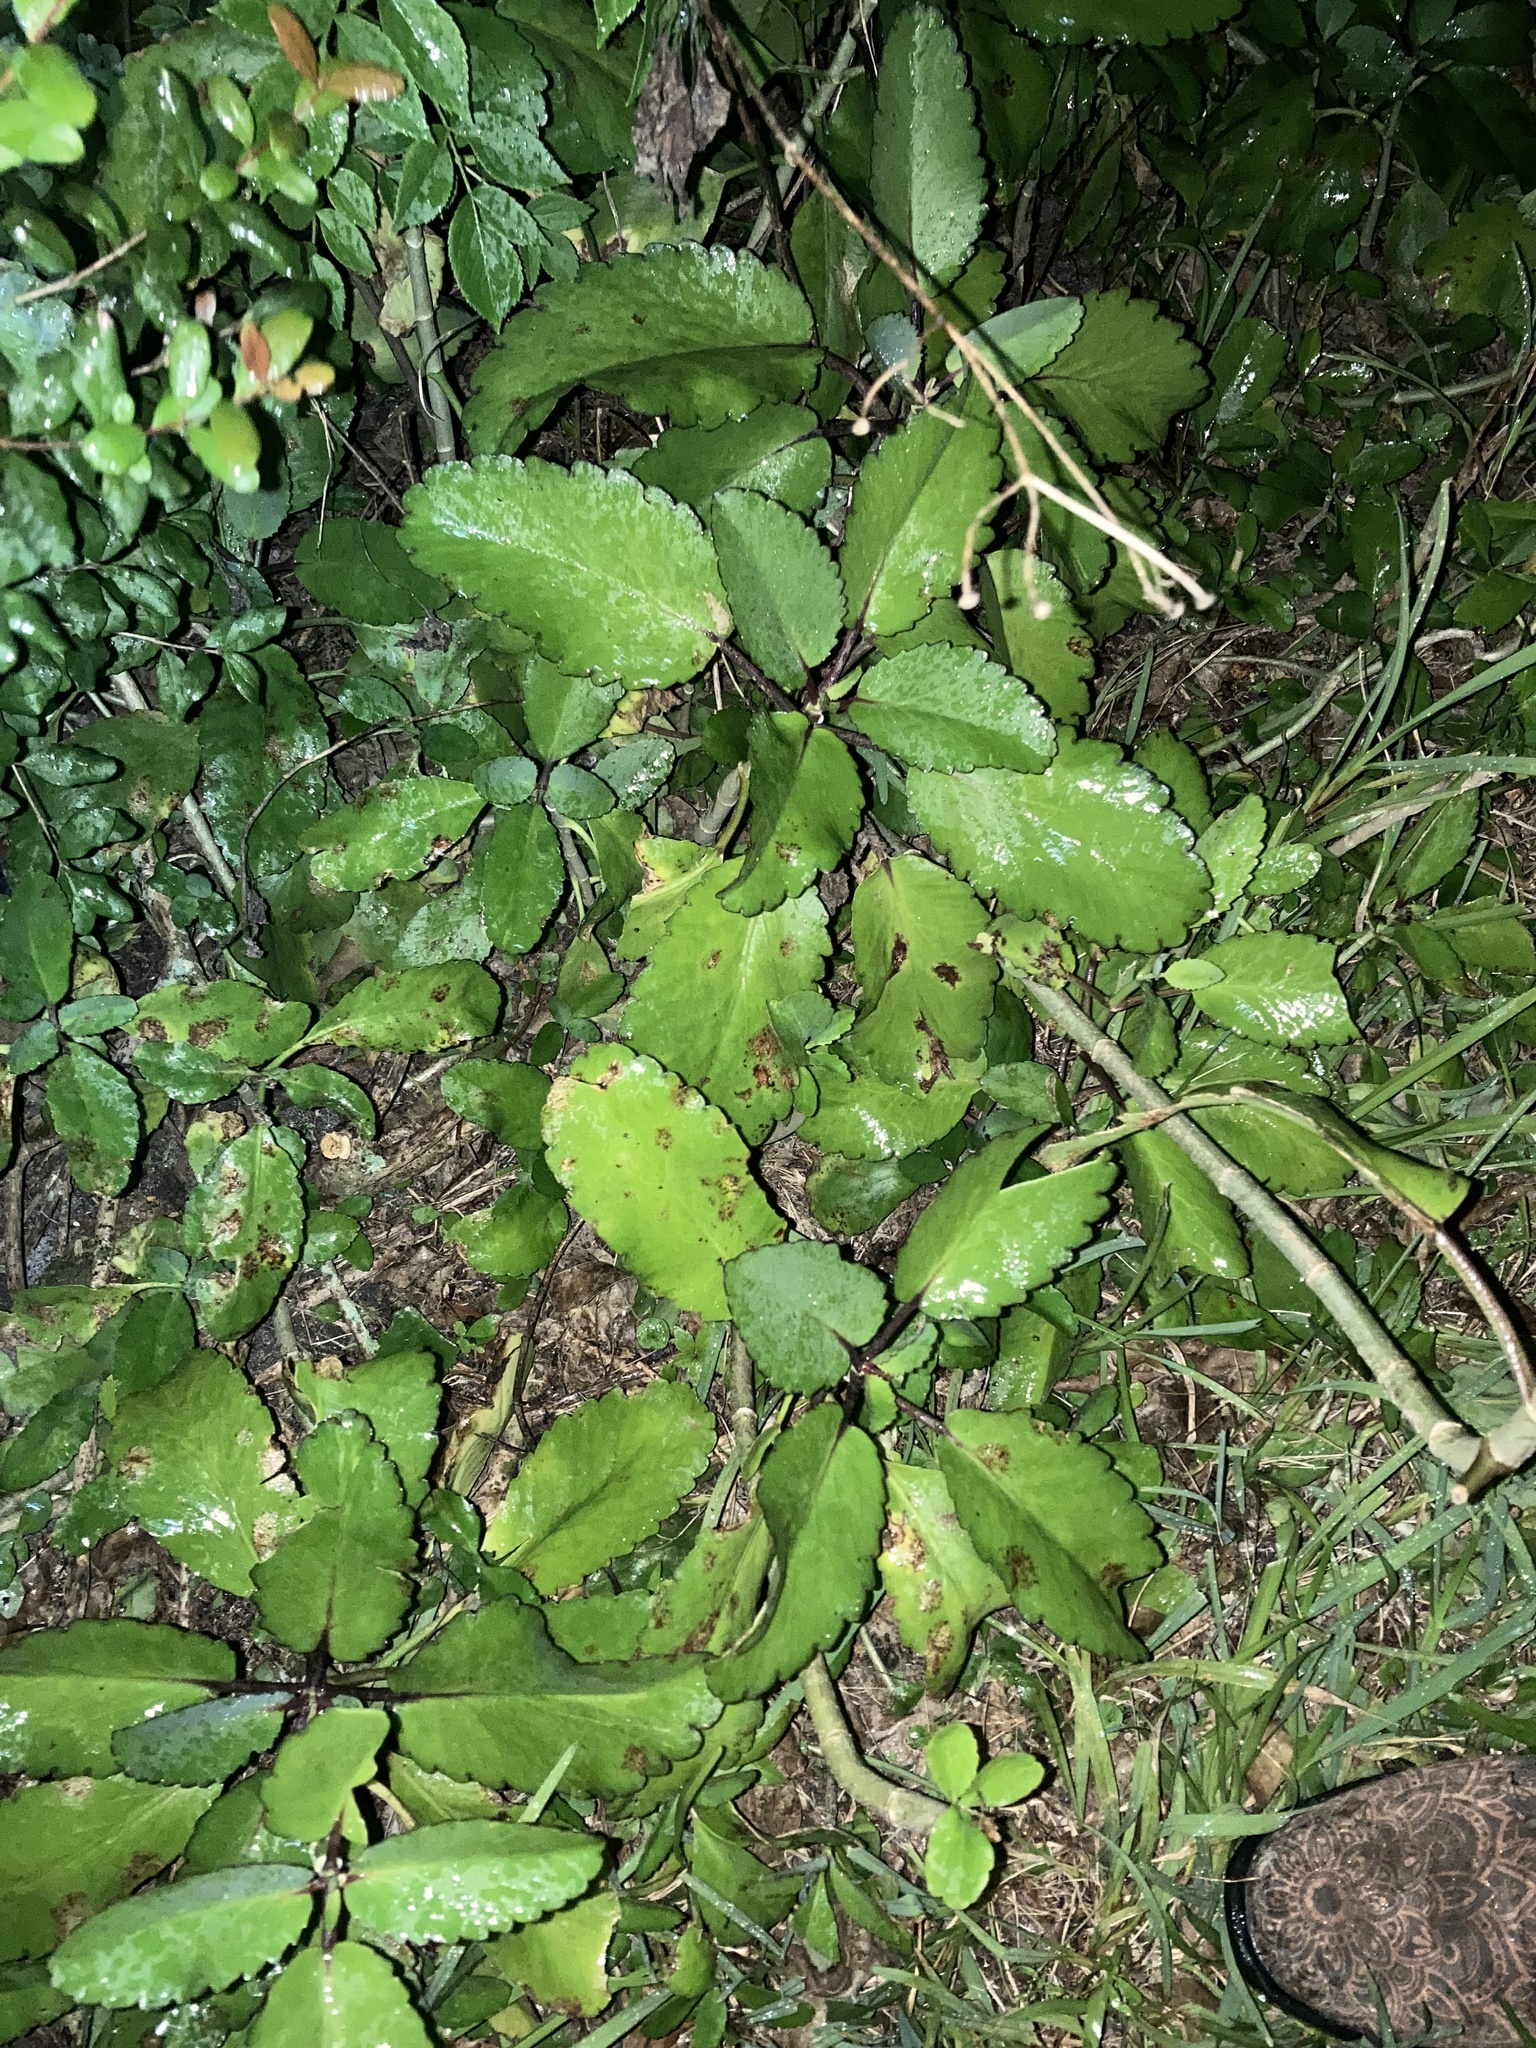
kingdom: Plantae
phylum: Tracheophyta
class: Magnoliopsida
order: Saxifragales
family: Crassulaceae
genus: Kalanchoe
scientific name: Kalanchoe pinnata
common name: Cathedral bells
